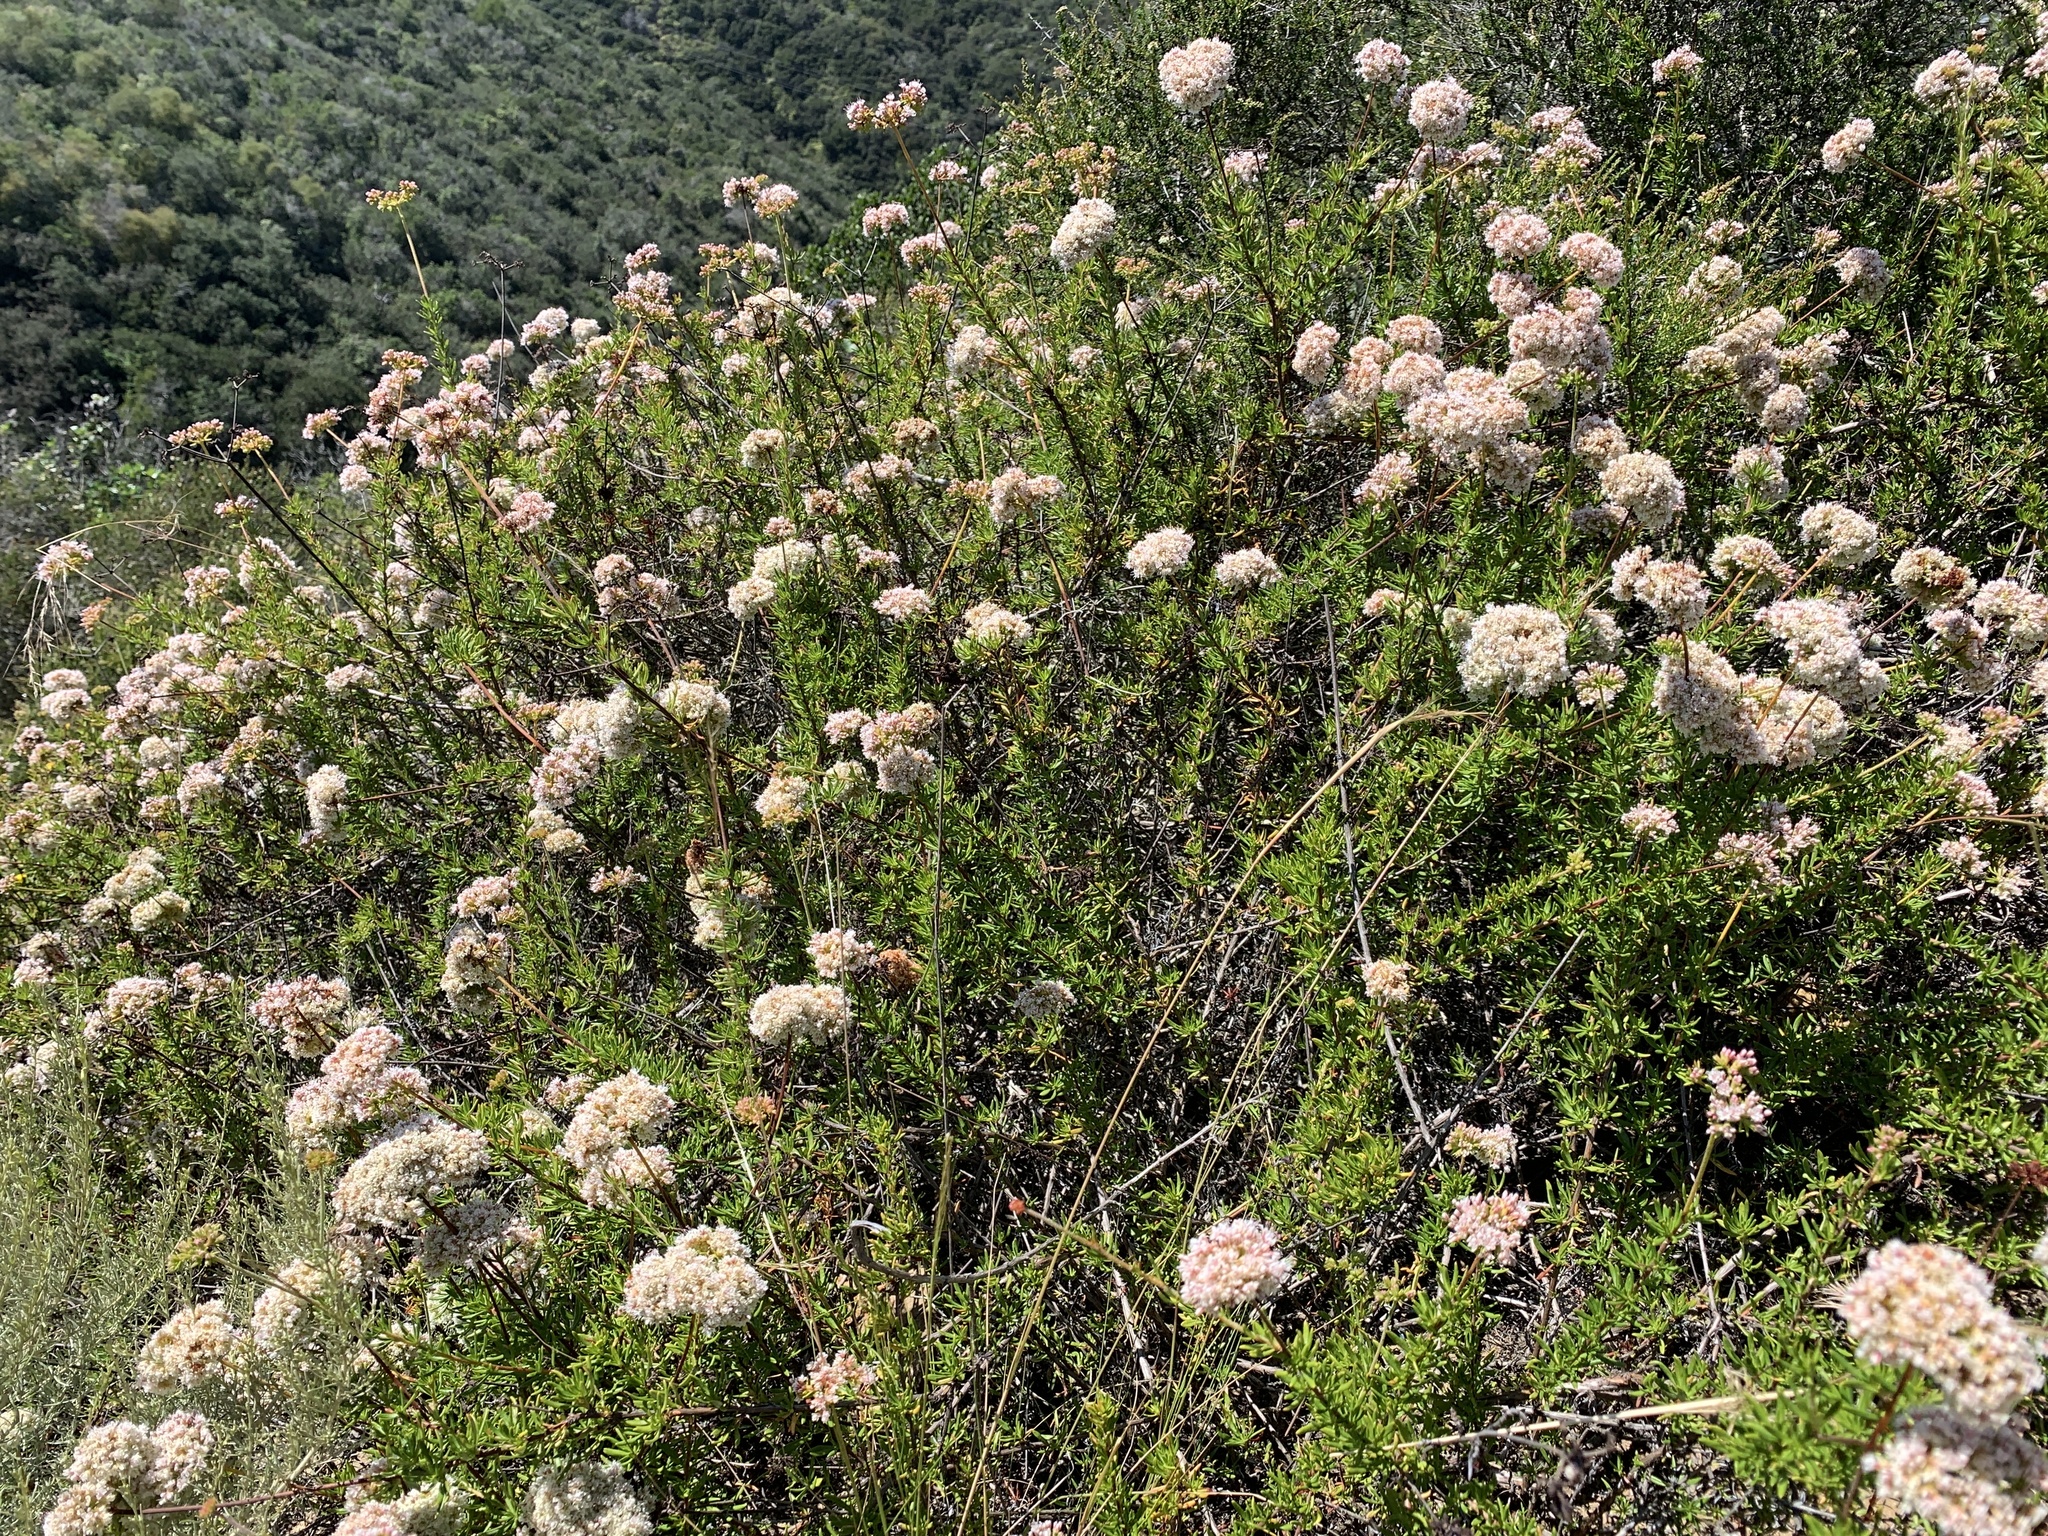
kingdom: Plantae
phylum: Tracheophyta
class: Magnoliopsida
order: Caryophyllales
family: Polygonaceae
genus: Eriogonum
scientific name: Eriogonum fasciculatum
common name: California wild buckwheat
